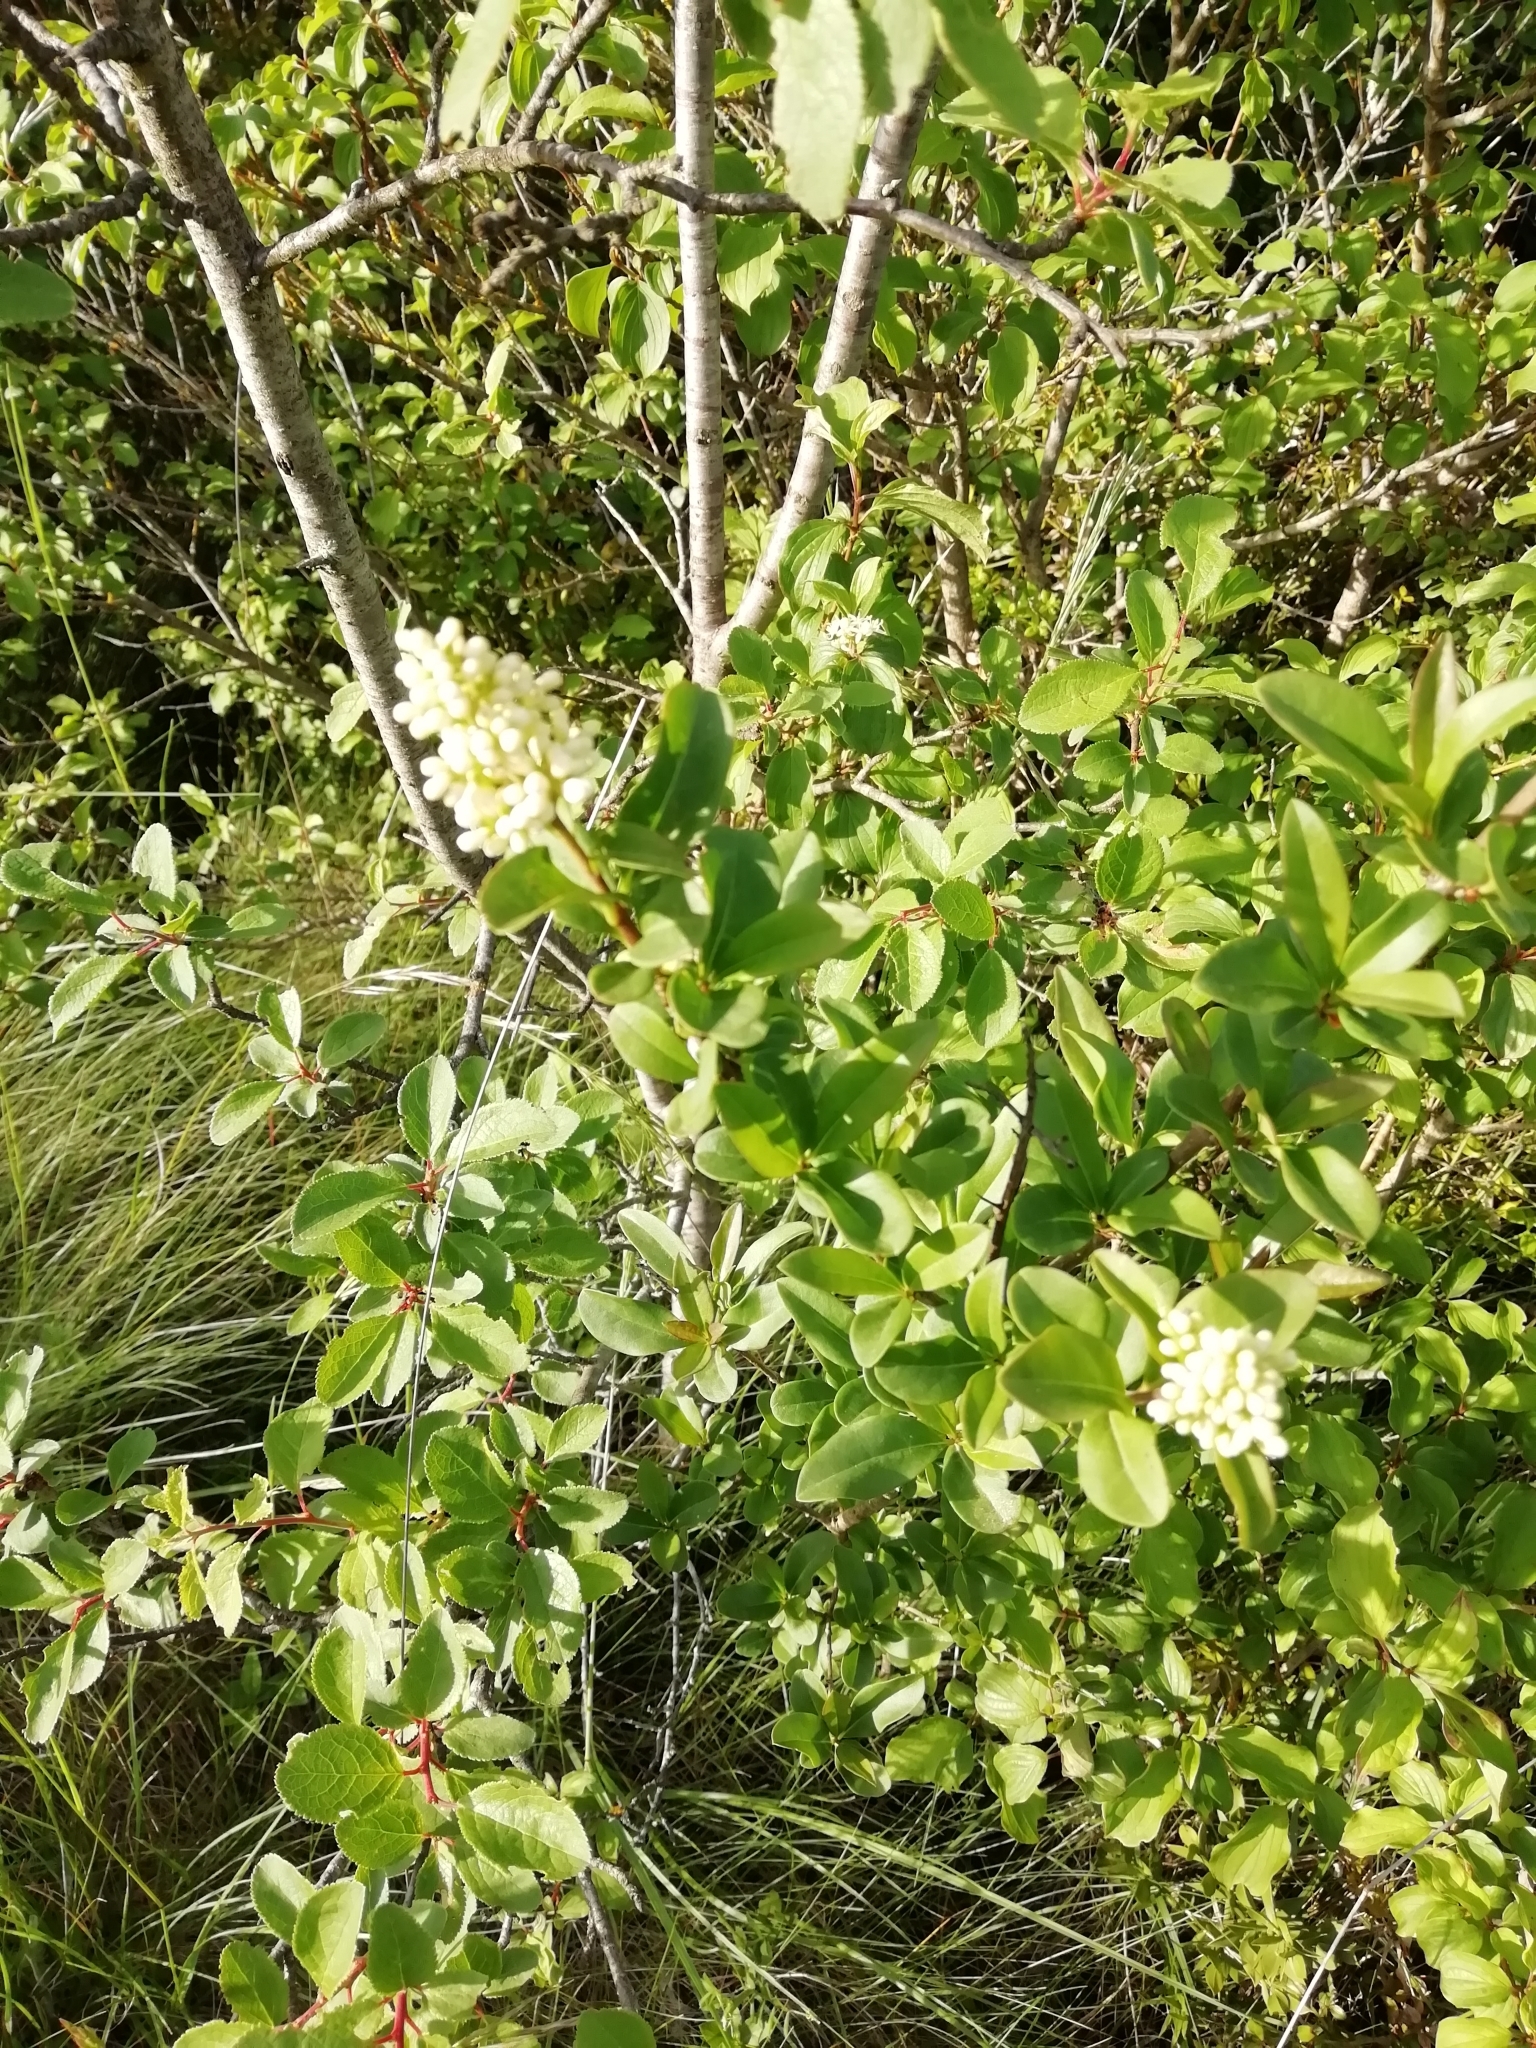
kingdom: Plantae
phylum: Tracheophyta
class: Magnoliopsida
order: Lamiales
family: Oleaceae
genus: Ligustrum
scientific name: Ligustrum vulgare
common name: Wild privet
